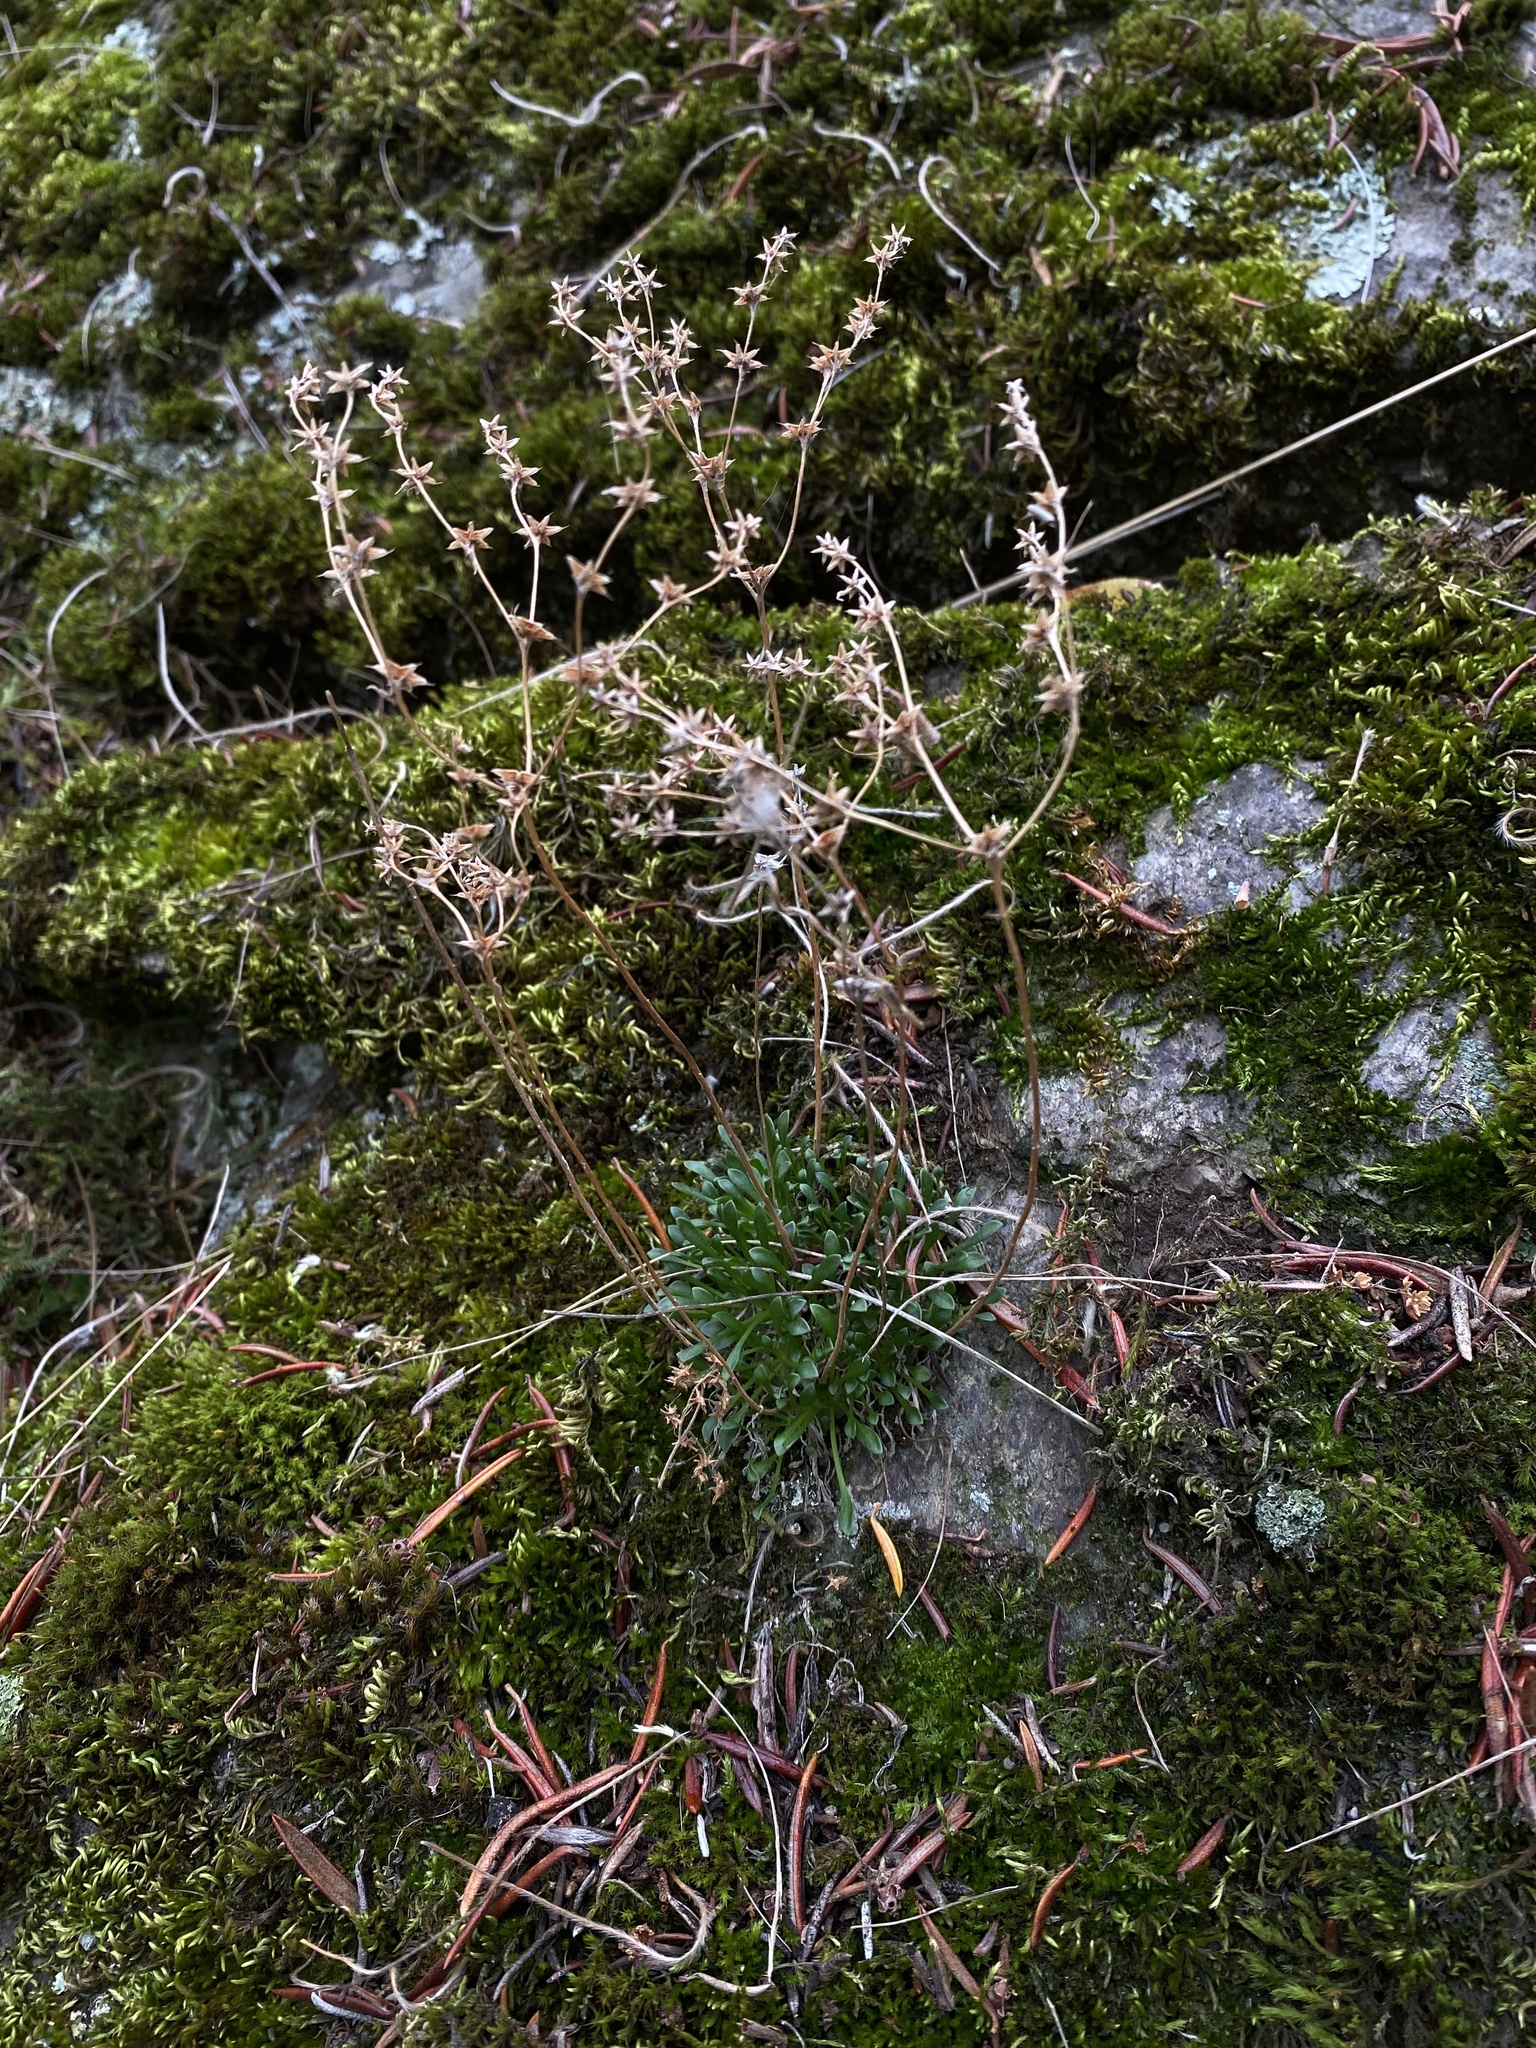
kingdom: Plantae
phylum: Tracheophyta
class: Magnoliopsida
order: Saxifragales
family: Crassulaceae
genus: Sedum
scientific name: Sedum leibergii
